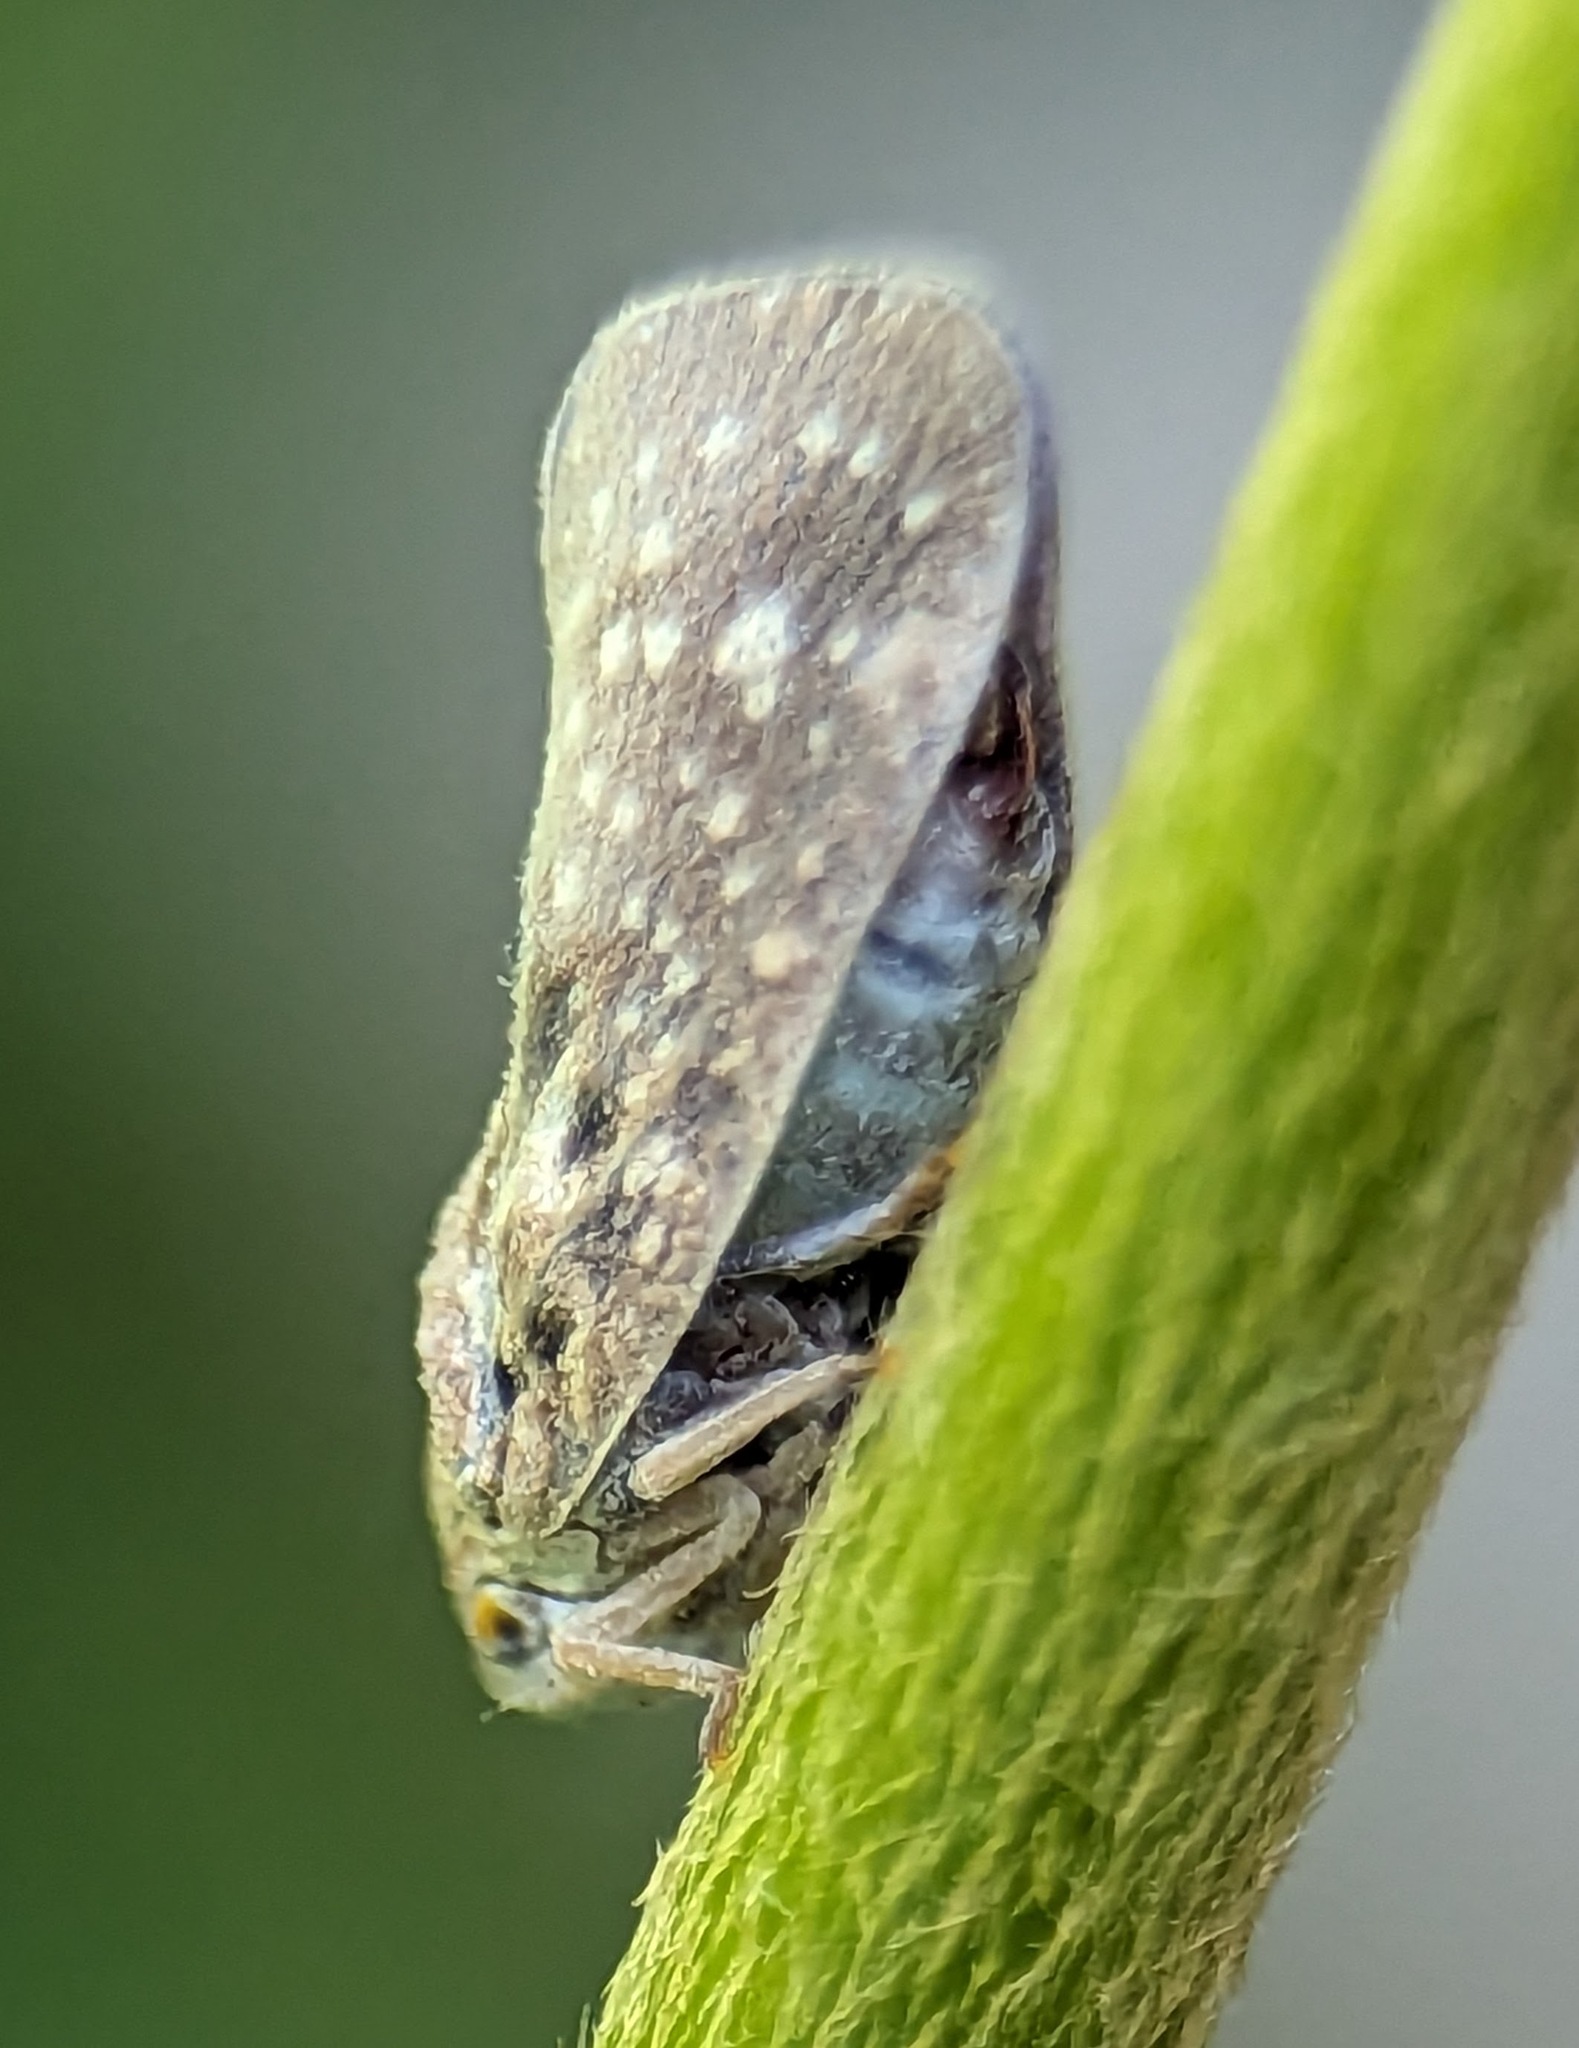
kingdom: Animalia
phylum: Arthropoda
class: Insecta
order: Hemiptera
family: Flatidae
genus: Metcalfa
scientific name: Metcalfa pruinosa
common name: Citrus flatid planthopper
